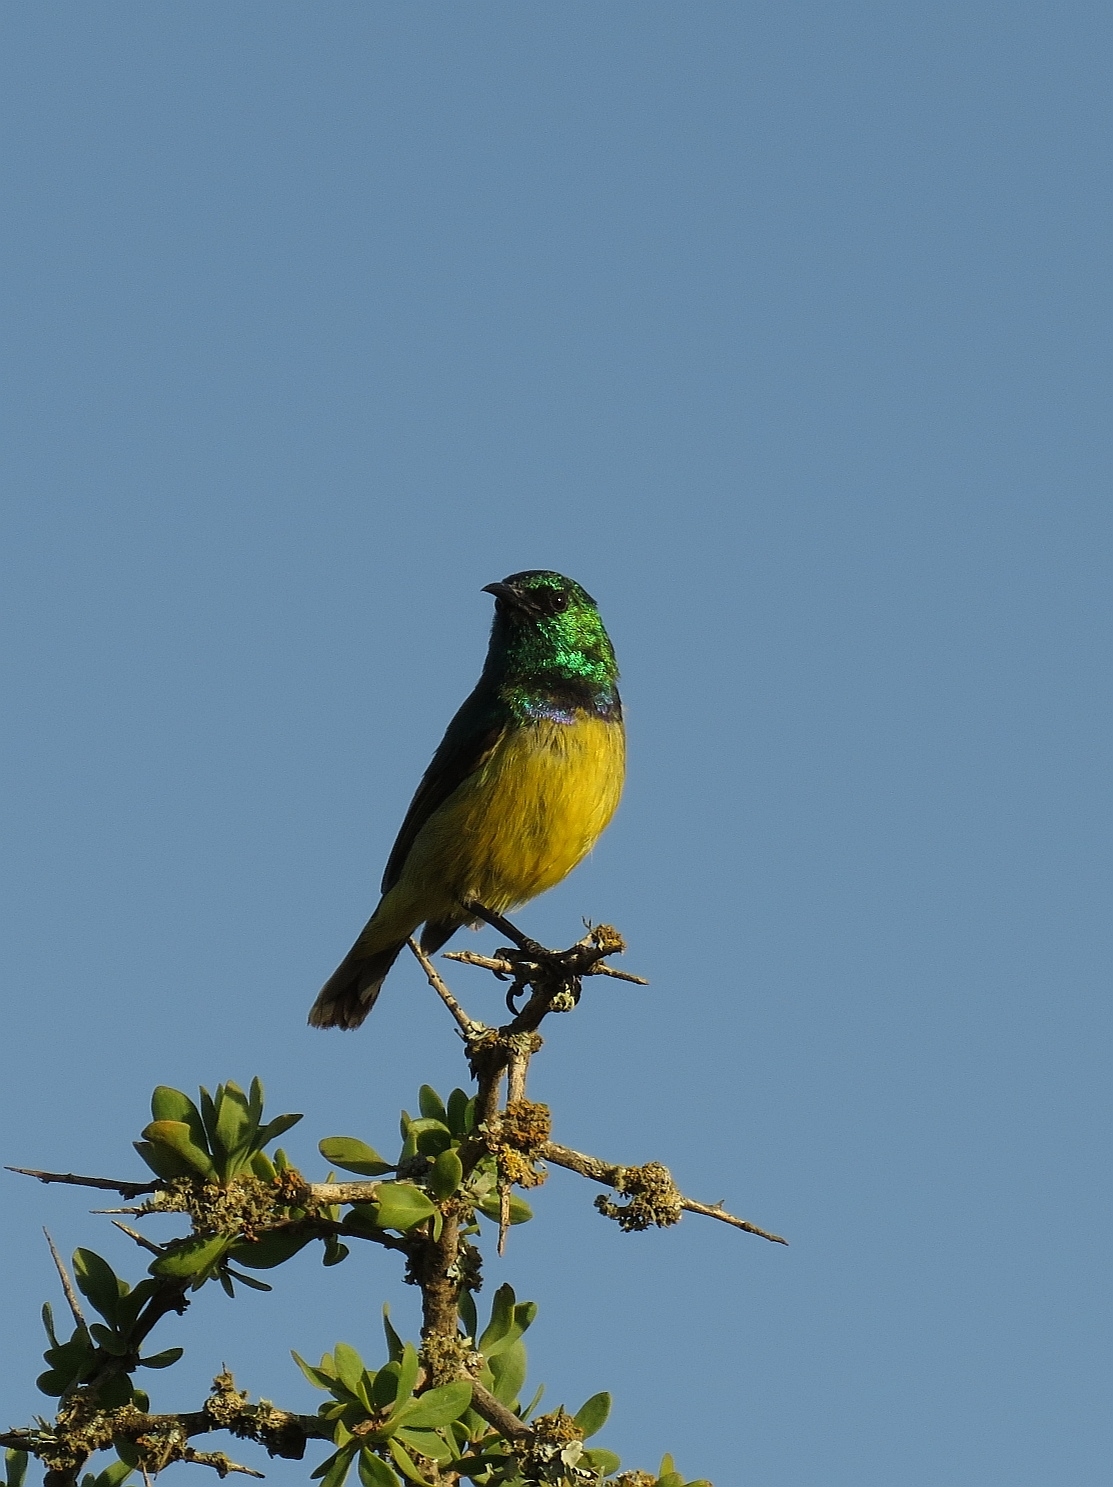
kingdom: Animalia
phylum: Chordata
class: Aves
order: Passeriformes
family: Nectariniidae
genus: Hedydipna
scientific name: Hedydipna collaris
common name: Collared sunbird
